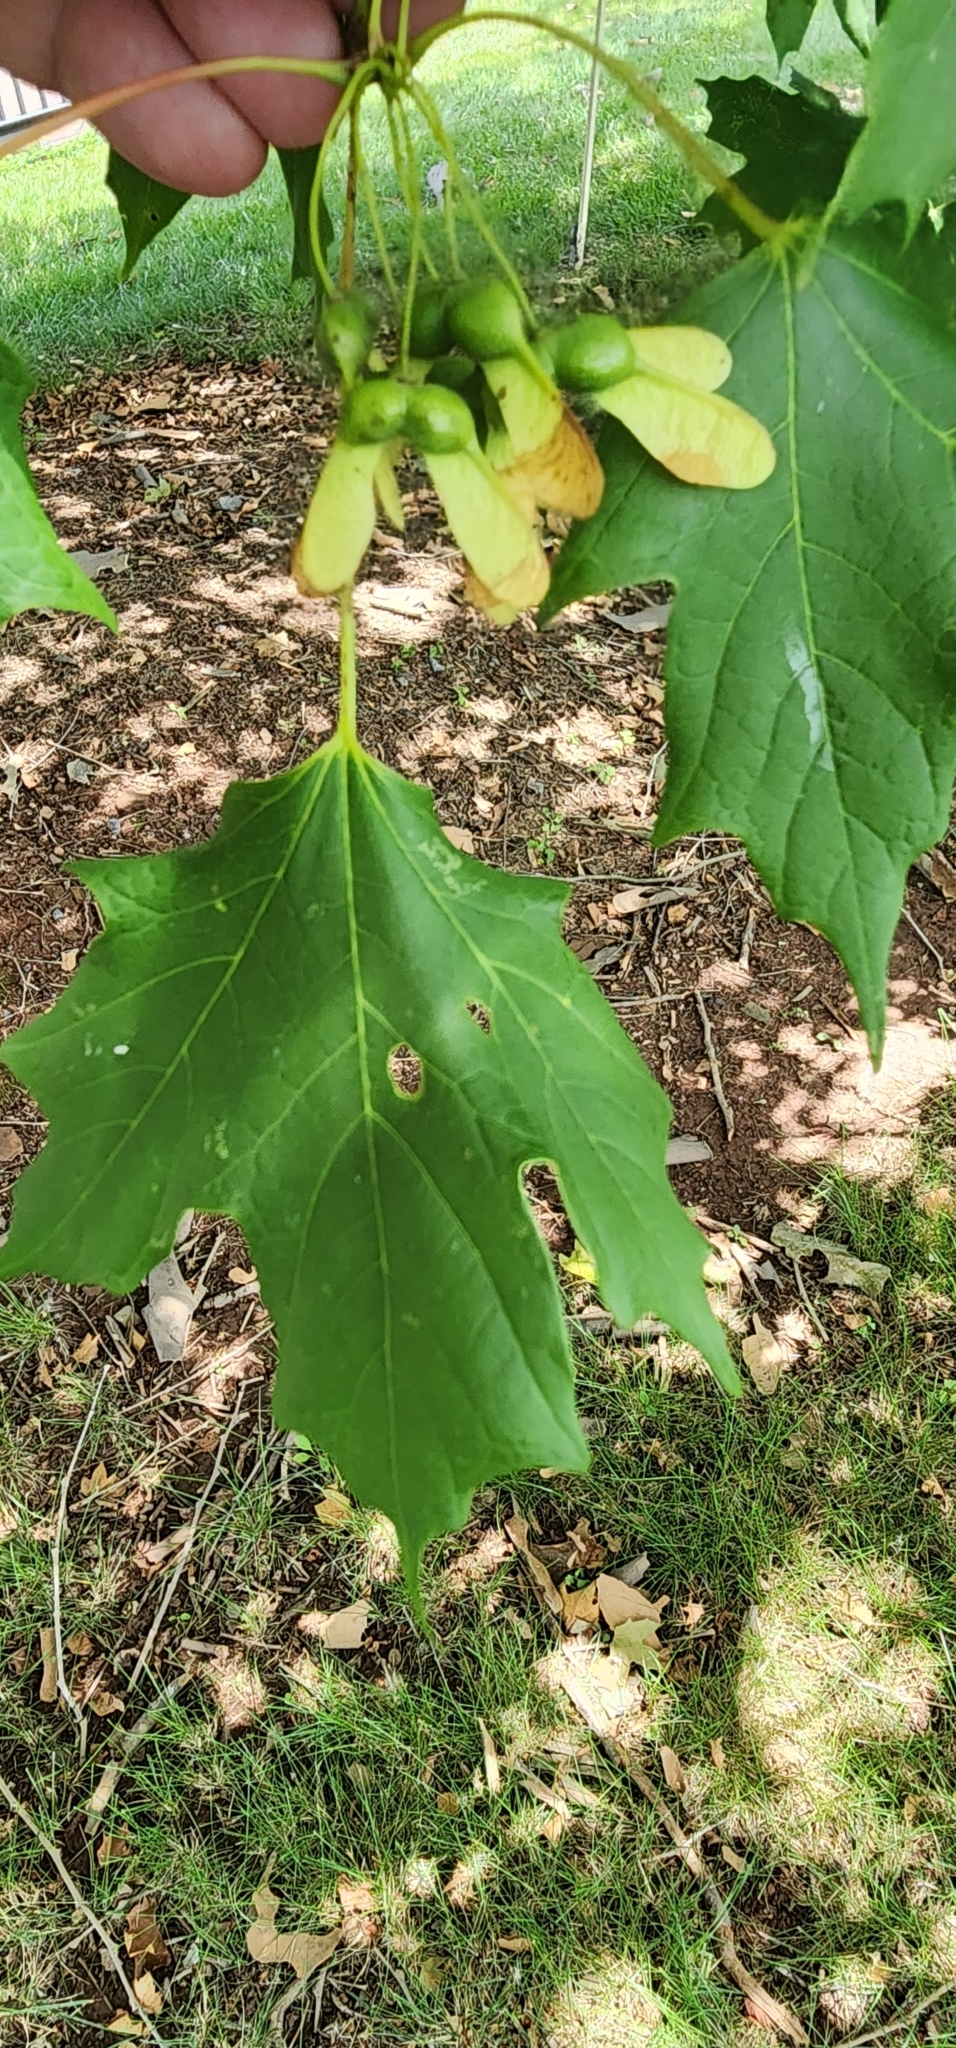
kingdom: Plantae
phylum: Tracheophyta
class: Magnoliopsida
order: Sapindales
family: Sapindaceae
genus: Acer
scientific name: Acer saccharum
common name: Sugar maple
